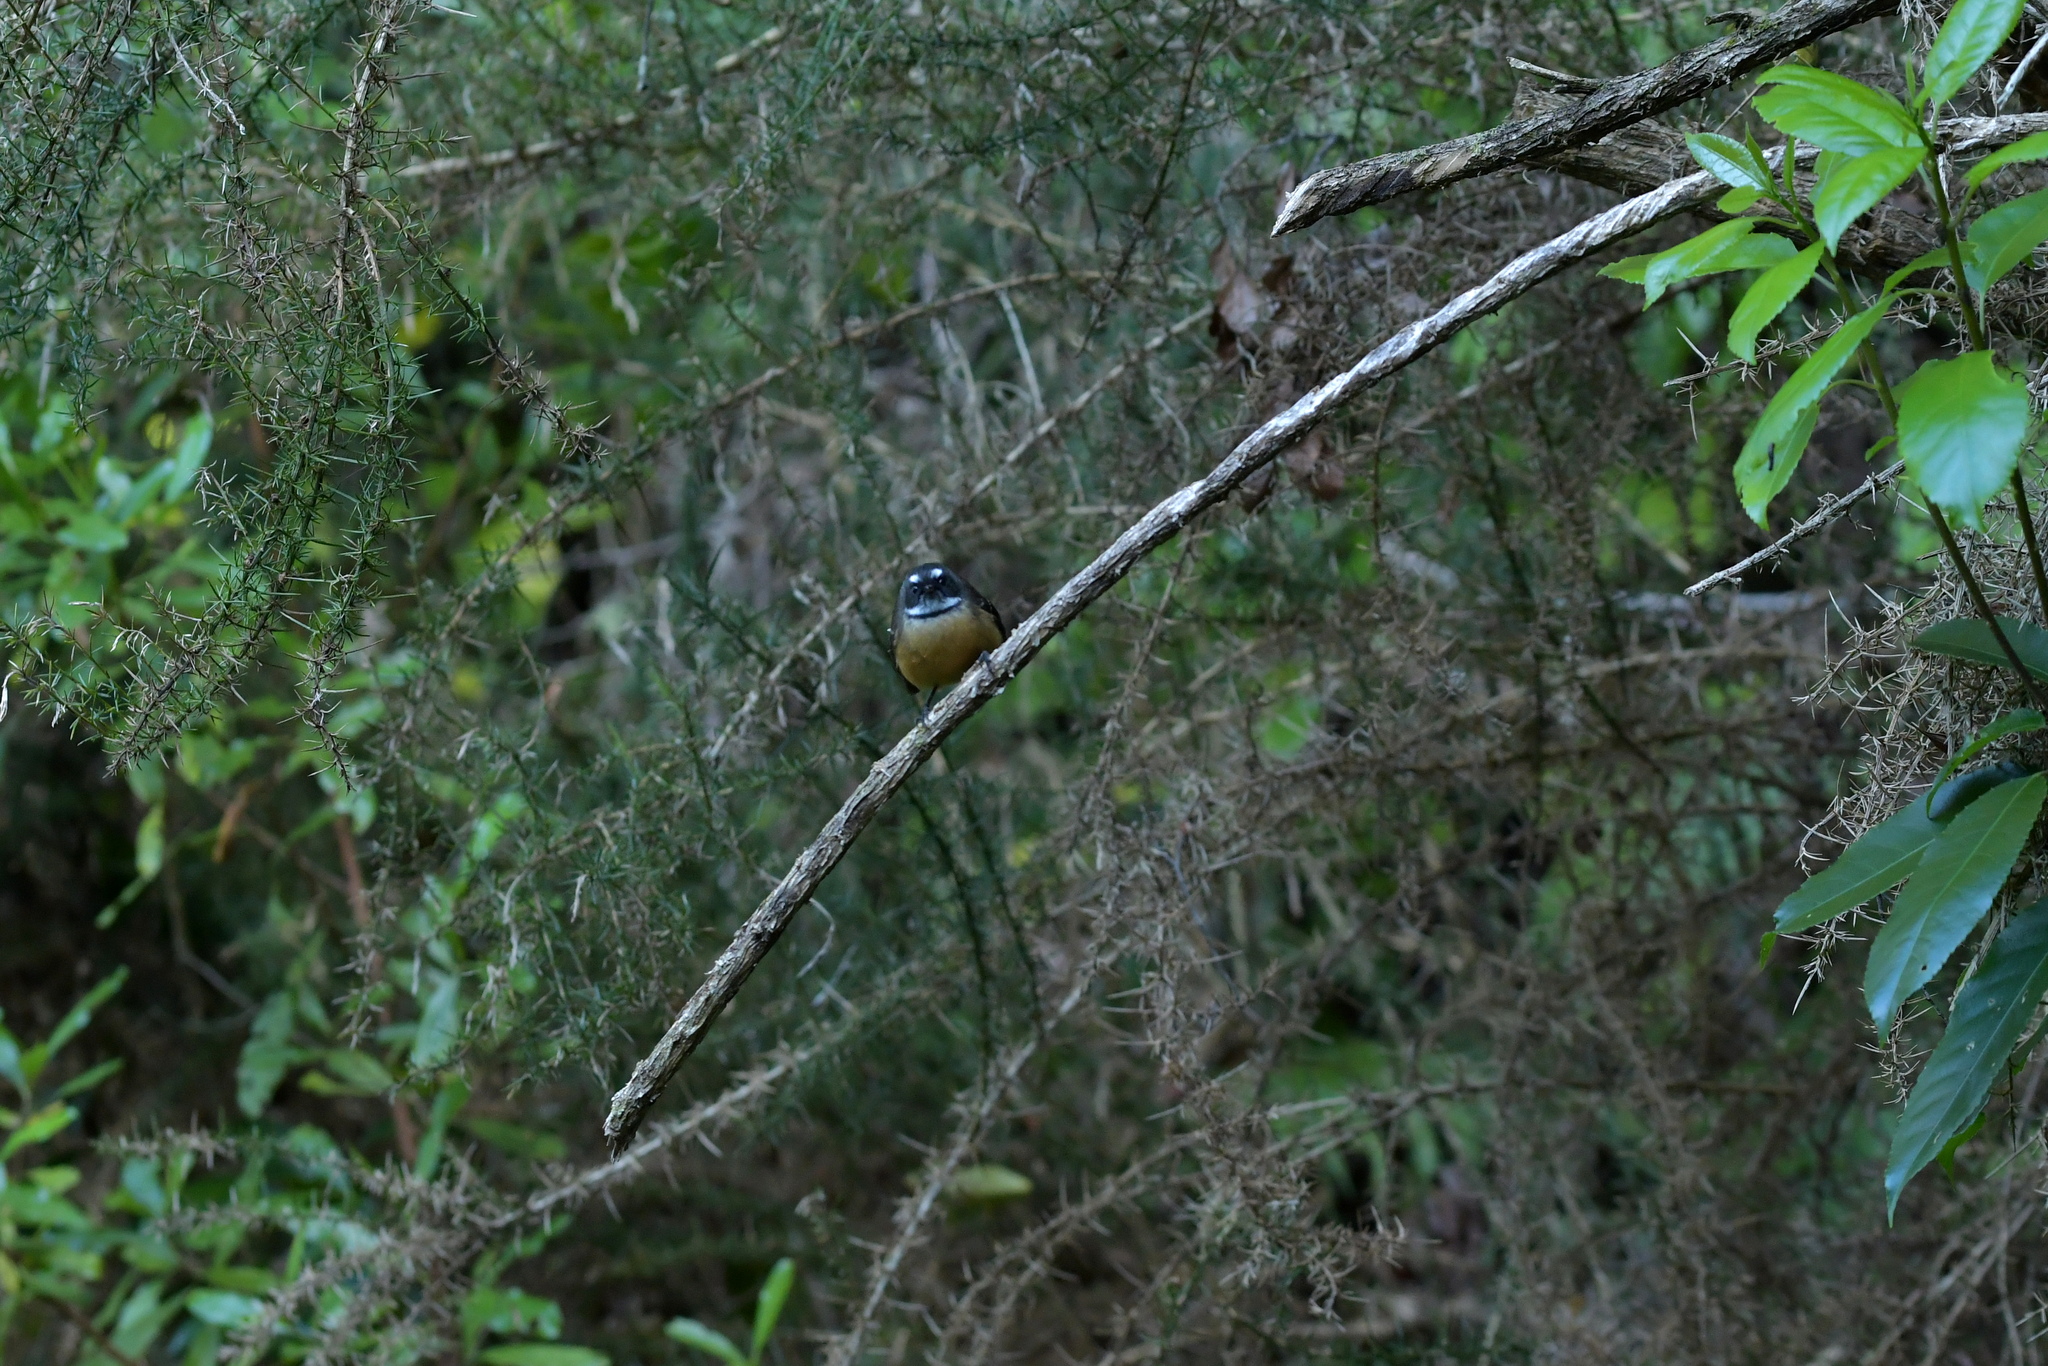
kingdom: Animalia
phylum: Chordata
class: Aves
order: Passeriformes
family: Rhipiduridae
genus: Rhipidura
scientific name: Rhipidura fuliginosa
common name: New zealand fantail
